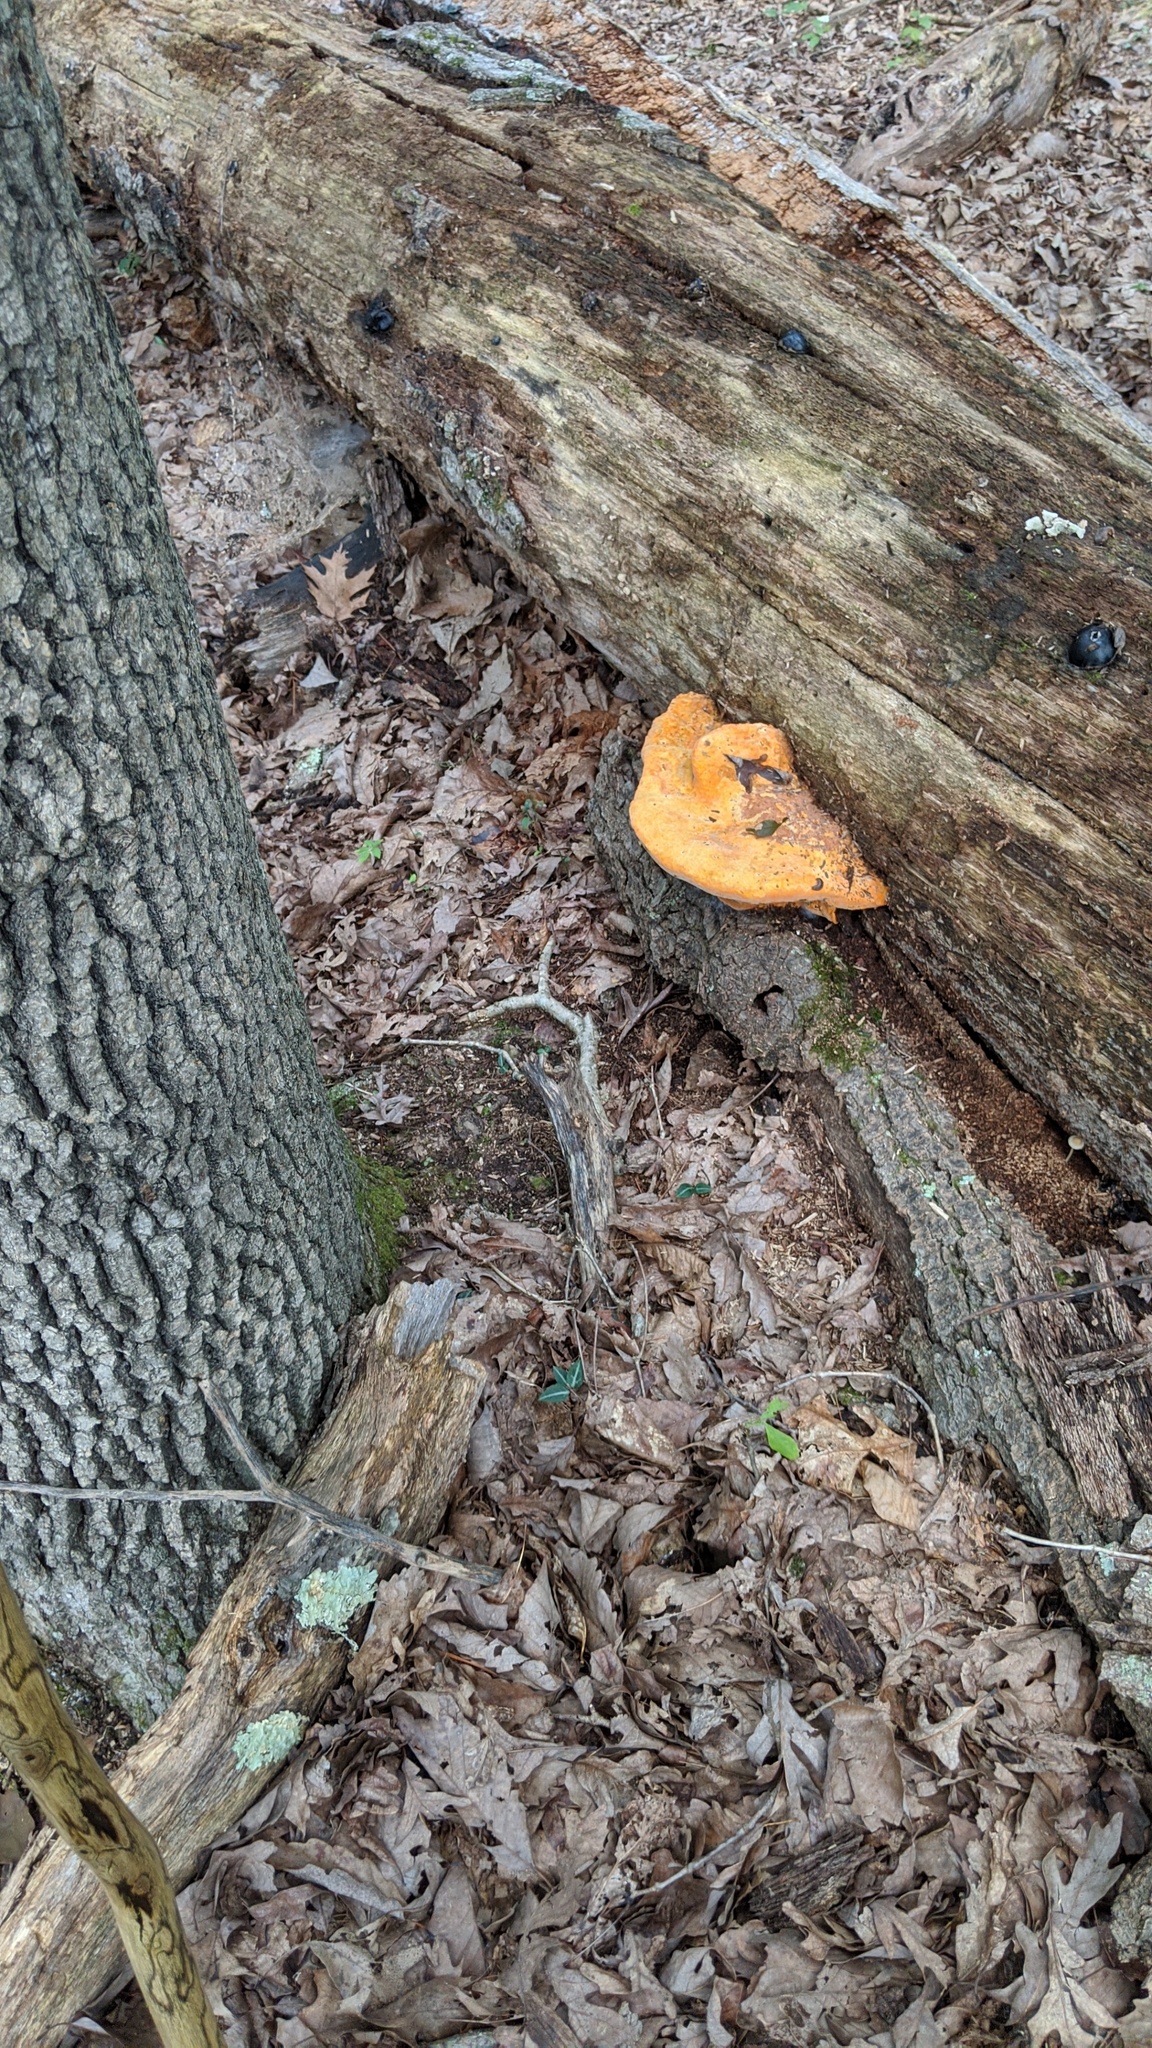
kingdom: Fungi
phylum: Basidiomycota
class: Agaricomycetes
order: Polyporales
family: Phanerochaetaceae
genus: Hapalopilus
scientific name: Hapalopilus croceus
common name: Orange polypore
